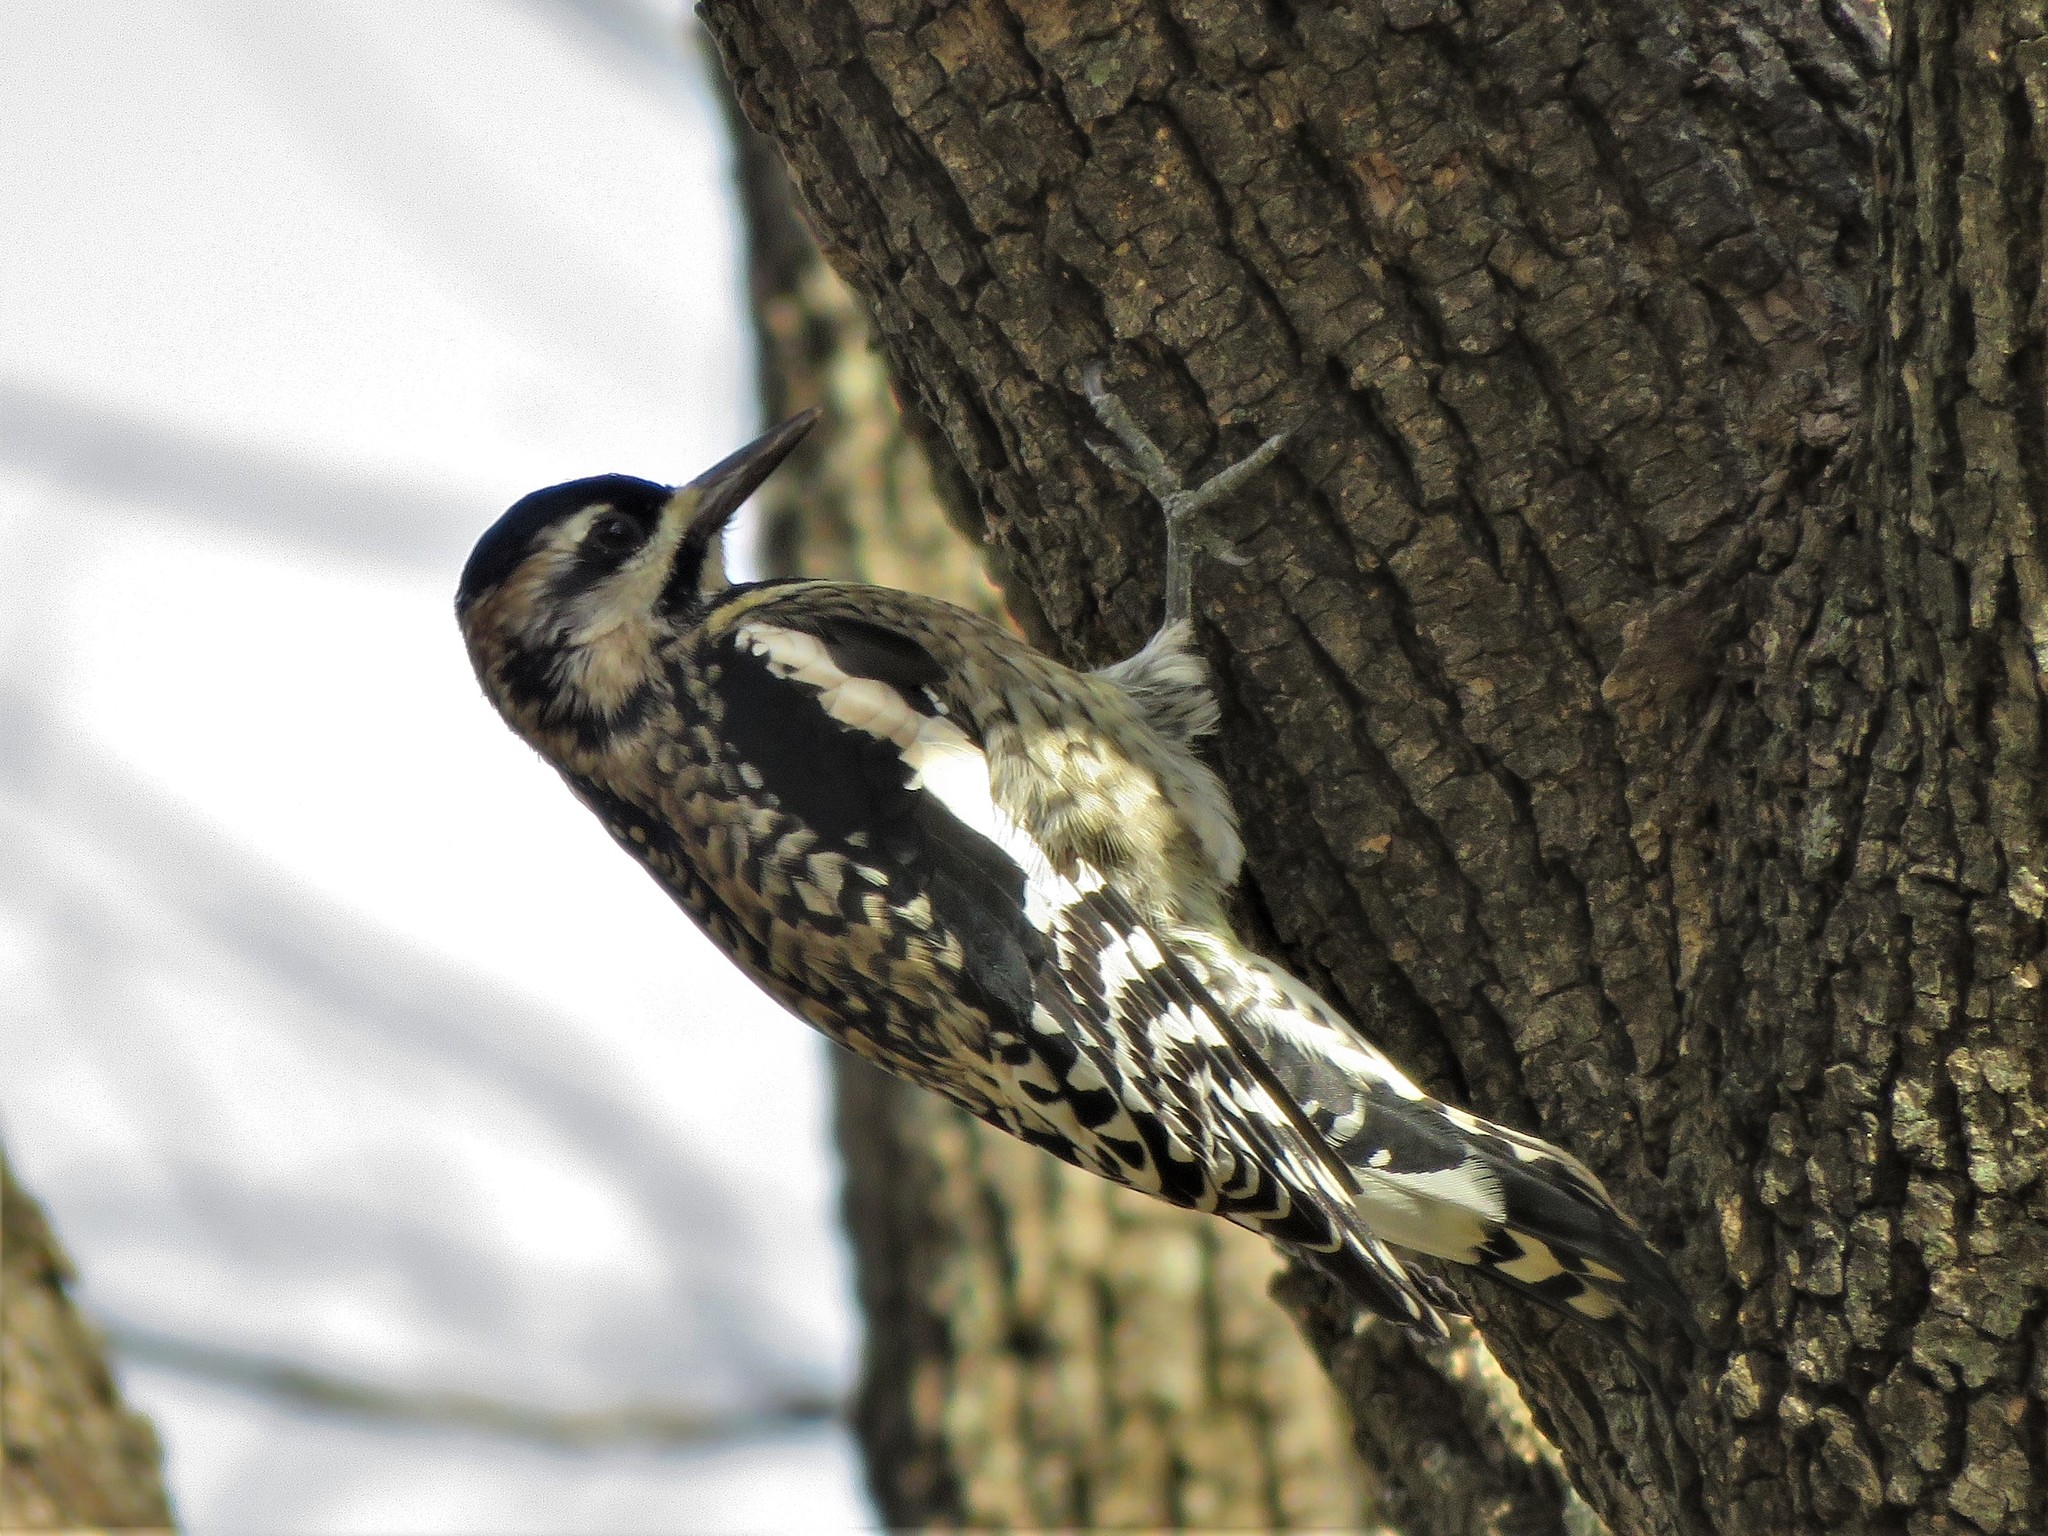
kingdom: Animalia
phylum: Chordata
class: Aves
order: Piciformes
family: Picidae
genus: Sphyrapicus
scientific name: Sphyrapicus varius
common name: Yellow-bellied sapsucker
